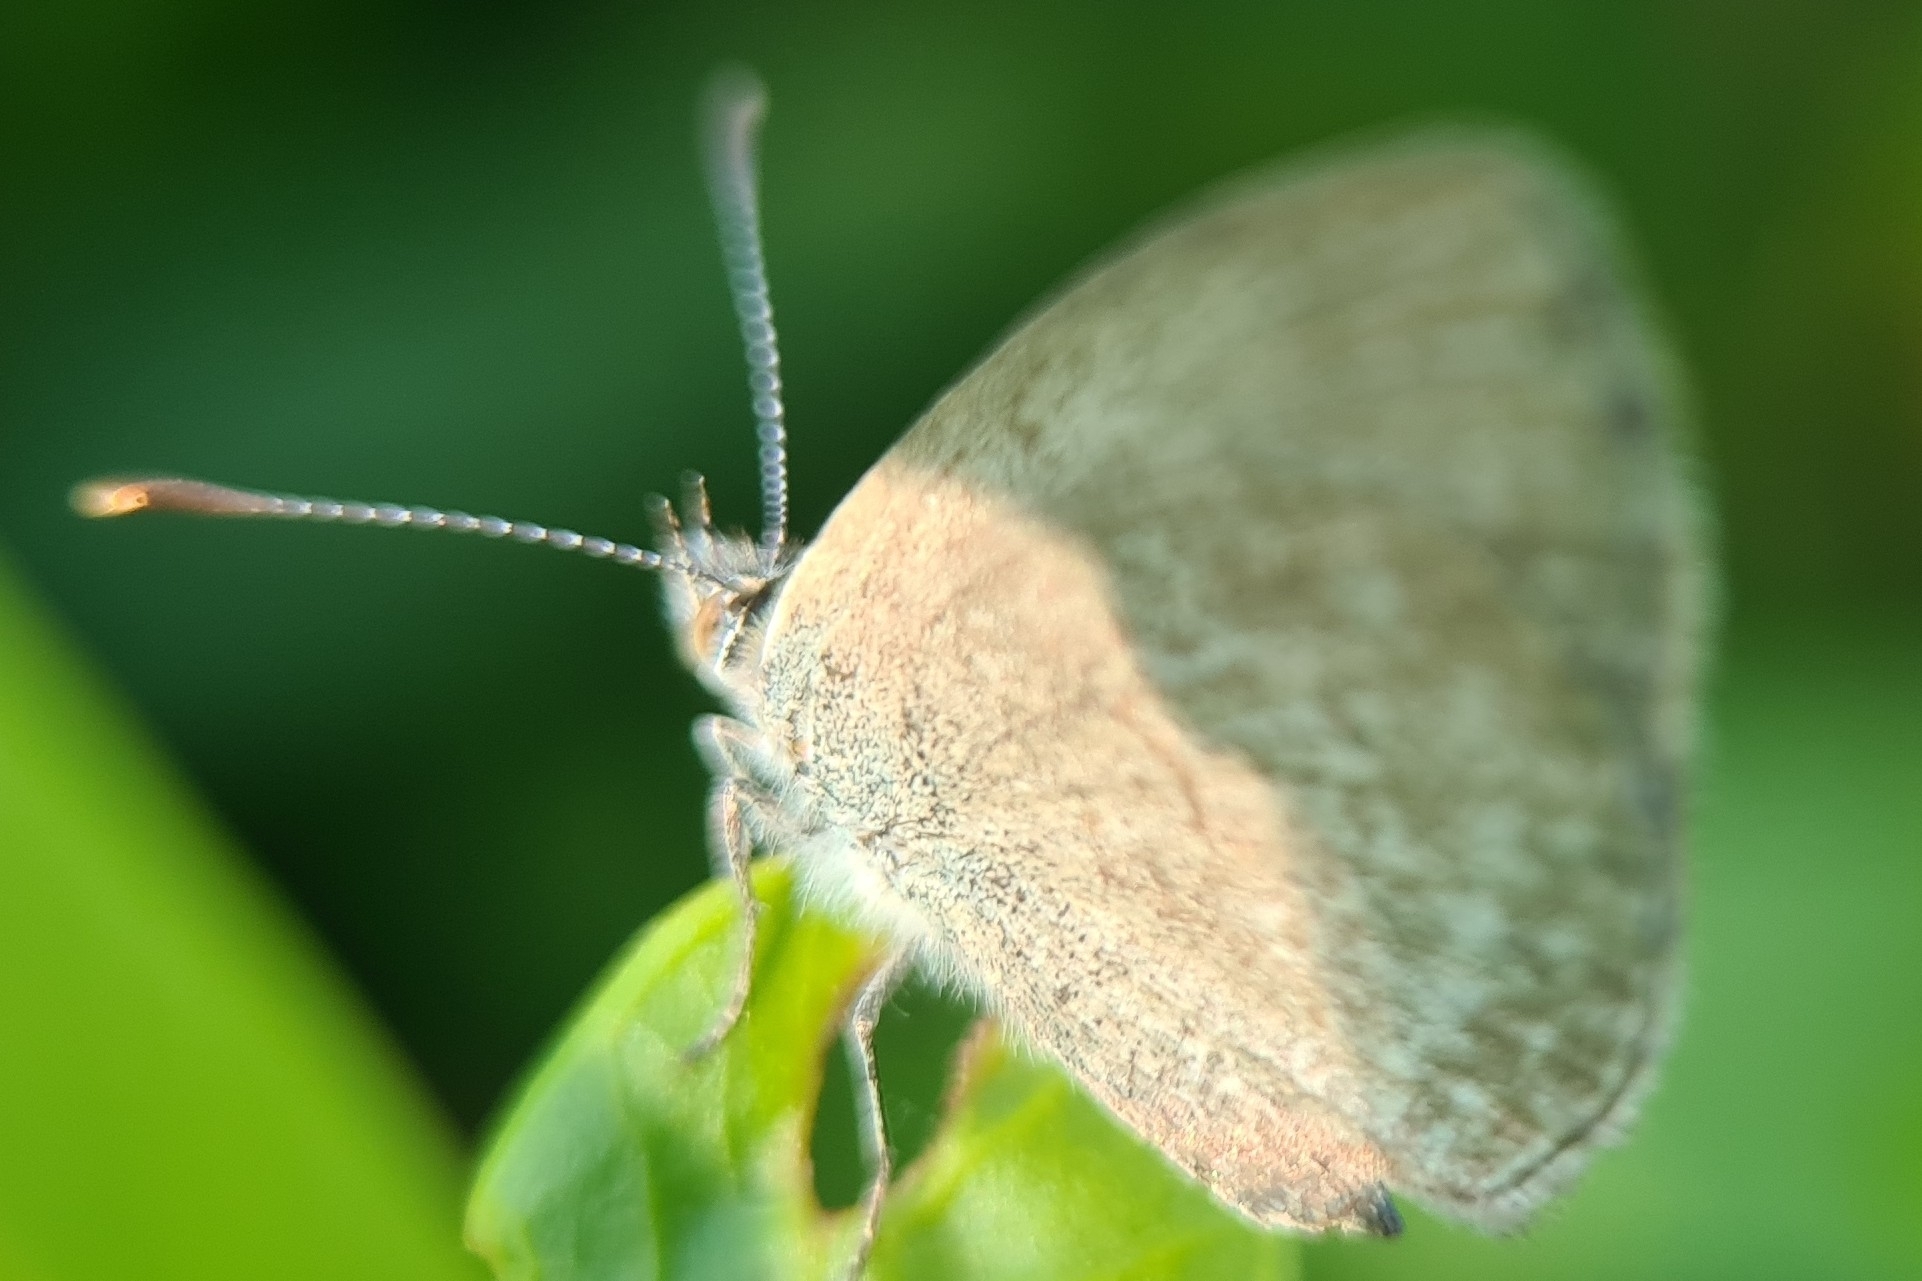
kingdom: Animalia
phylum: Arthropoda
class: Insecta
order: Lepidoptera
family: Lycaenidae
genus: Zizina
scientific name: Zizina otis
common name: Lesser grass blue
